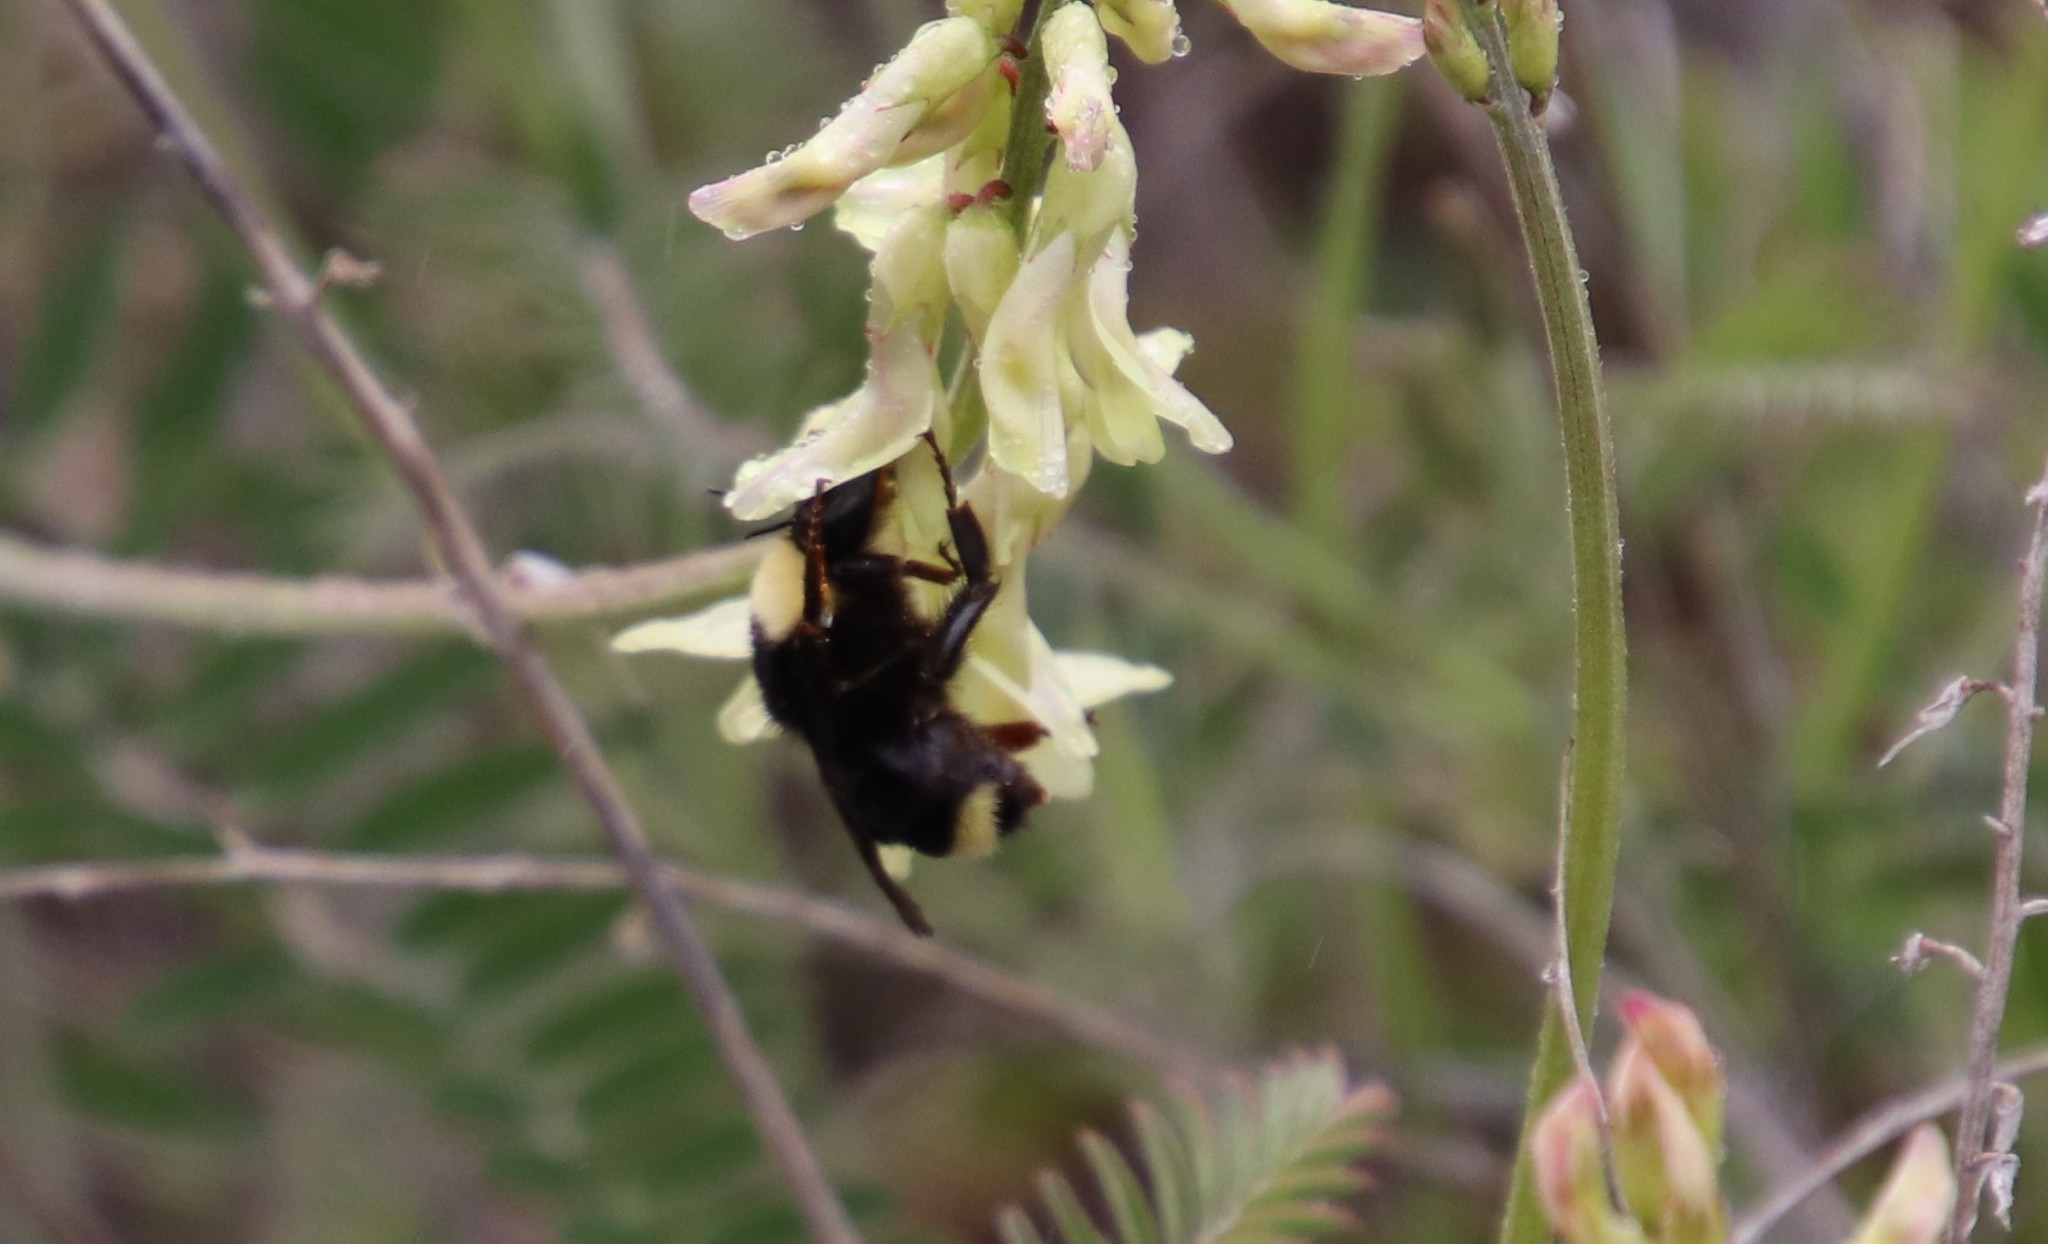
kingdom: Animalia
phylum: Arthropoda
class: Insecta
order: Hymenoptera
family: Apidae
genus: Bombus
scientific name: Bombus californicus
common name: California bumble bee
